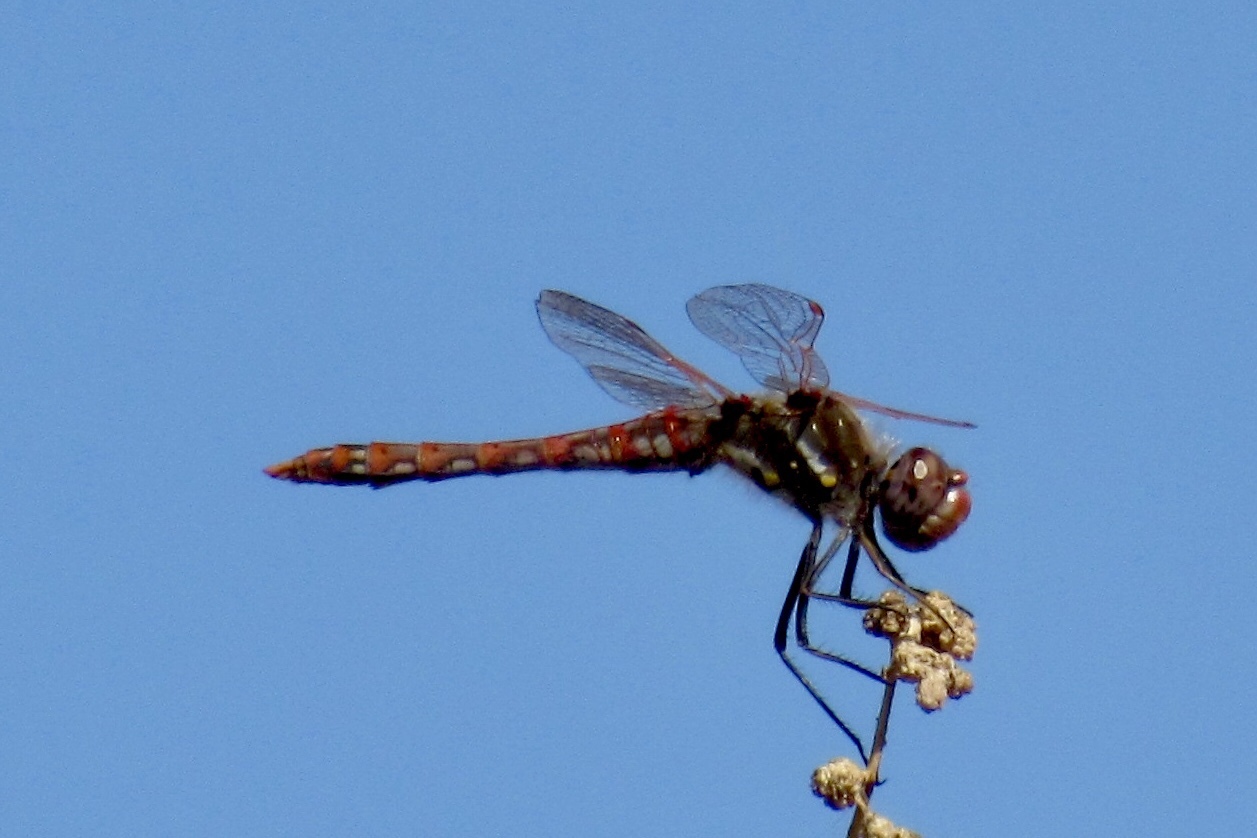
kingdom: Animalia
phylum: Arthropoda
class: Insecta
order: Odonata
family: Libellulidae
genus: Sympetrum
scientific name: Sympetrum corruptum
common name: Variegated meadowhawk
